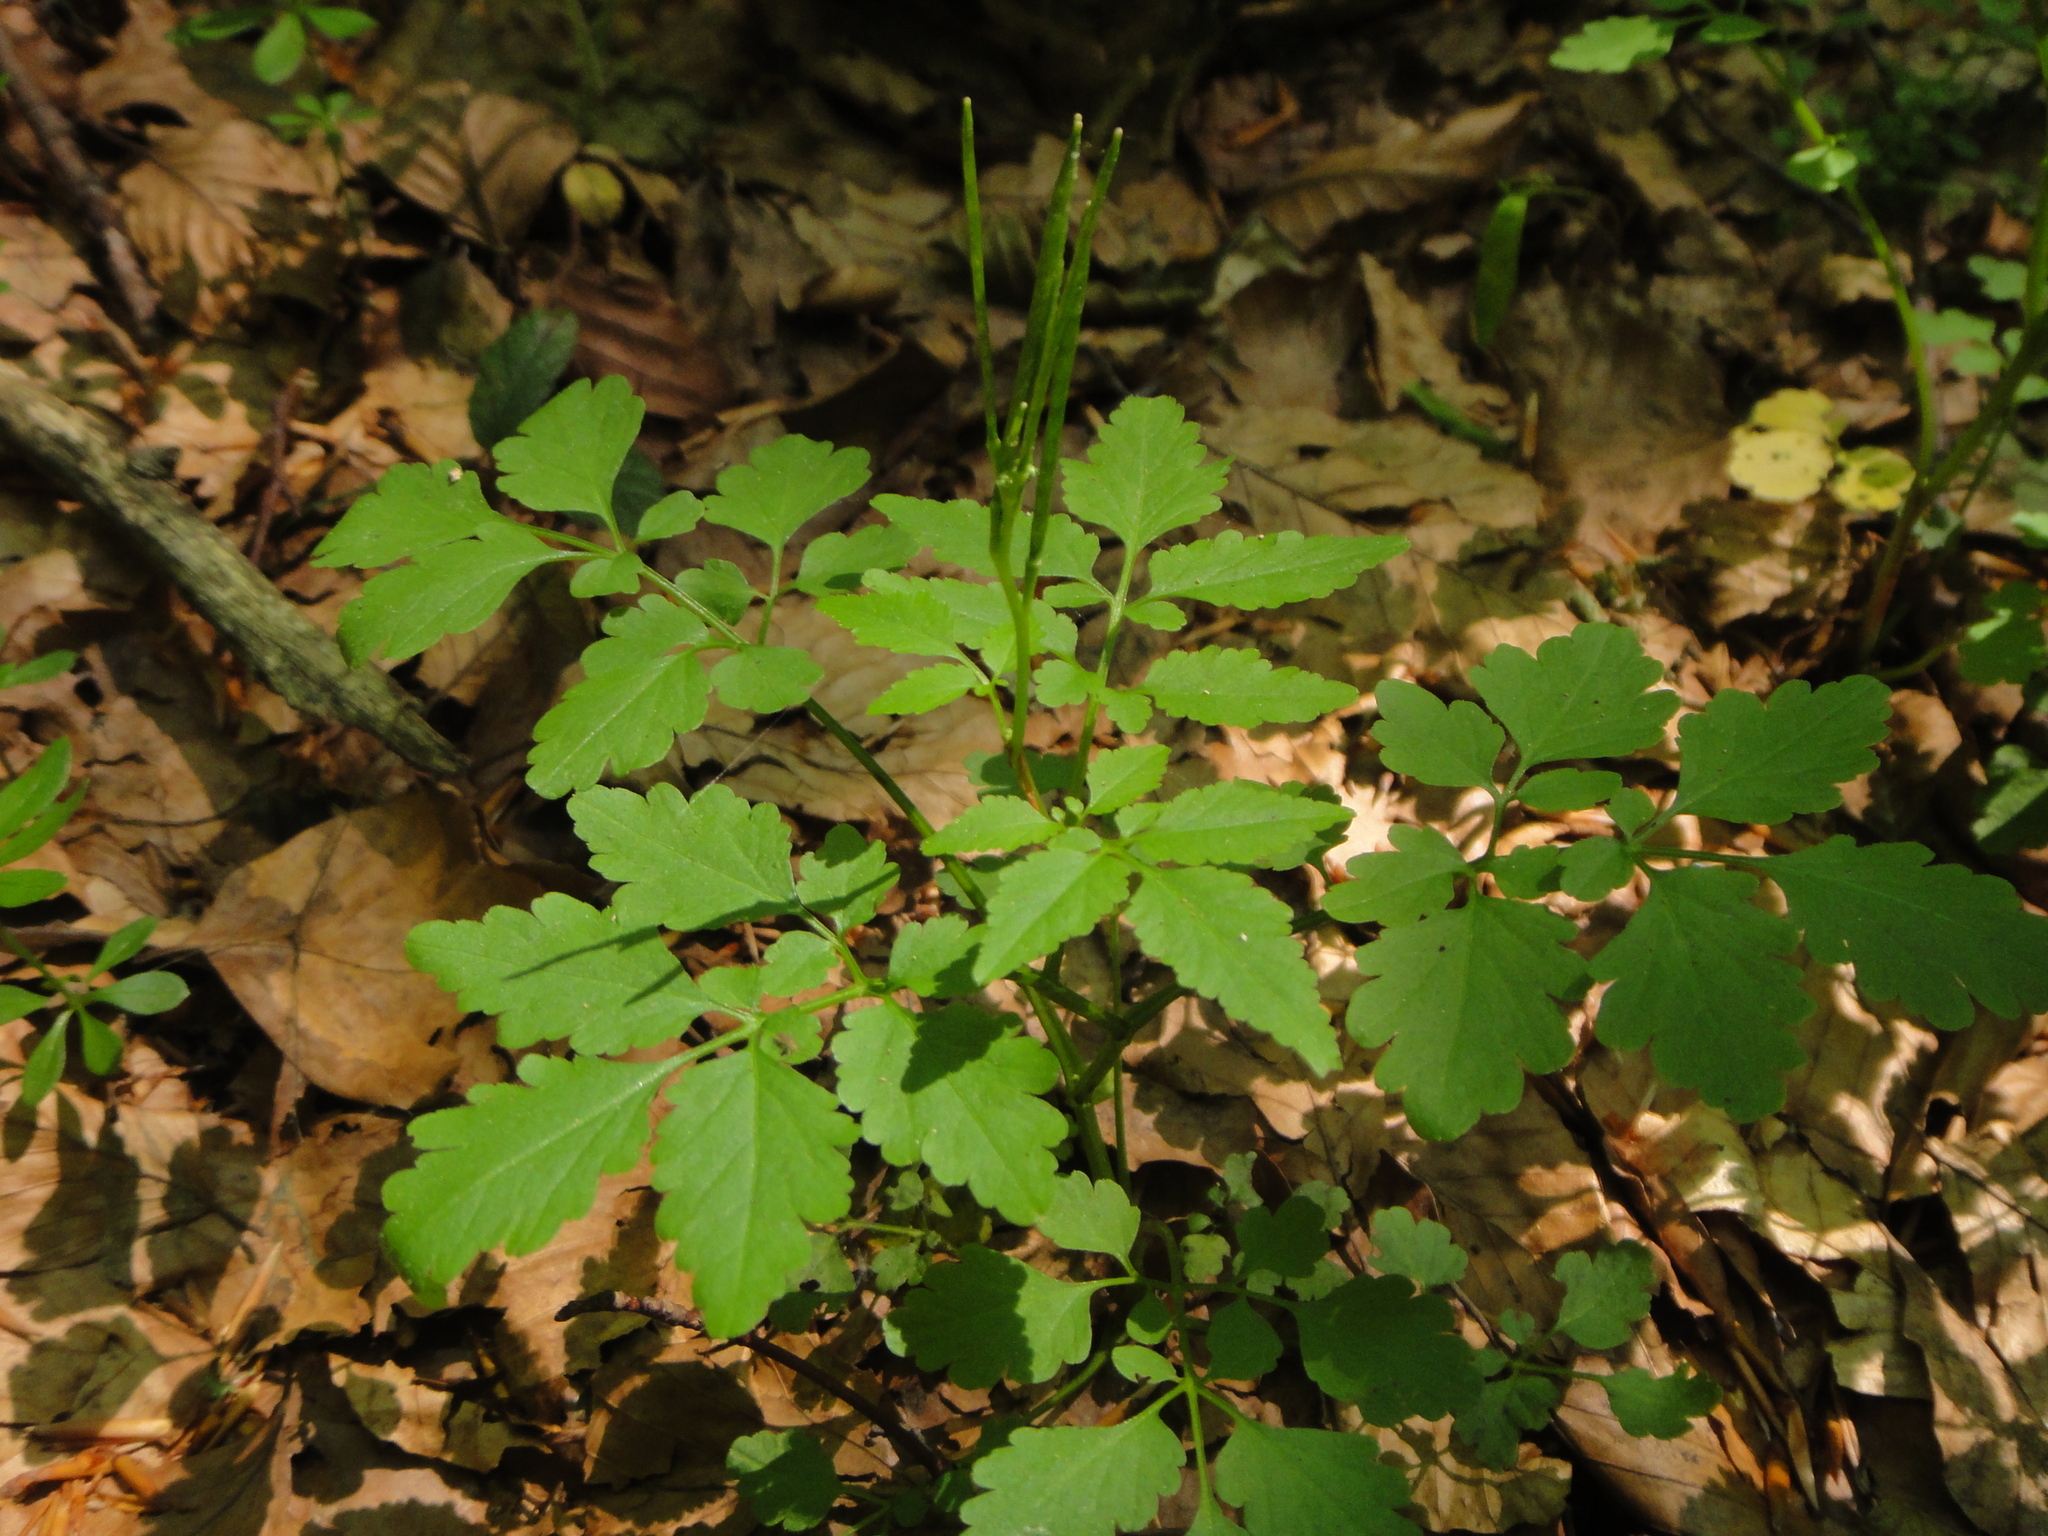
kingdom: Plantae
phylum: Tracheophyta
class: Magnoliopsida
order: Brassicales
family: Brassicaceae
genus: Cardamine
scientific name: Cardamine chelidonia
